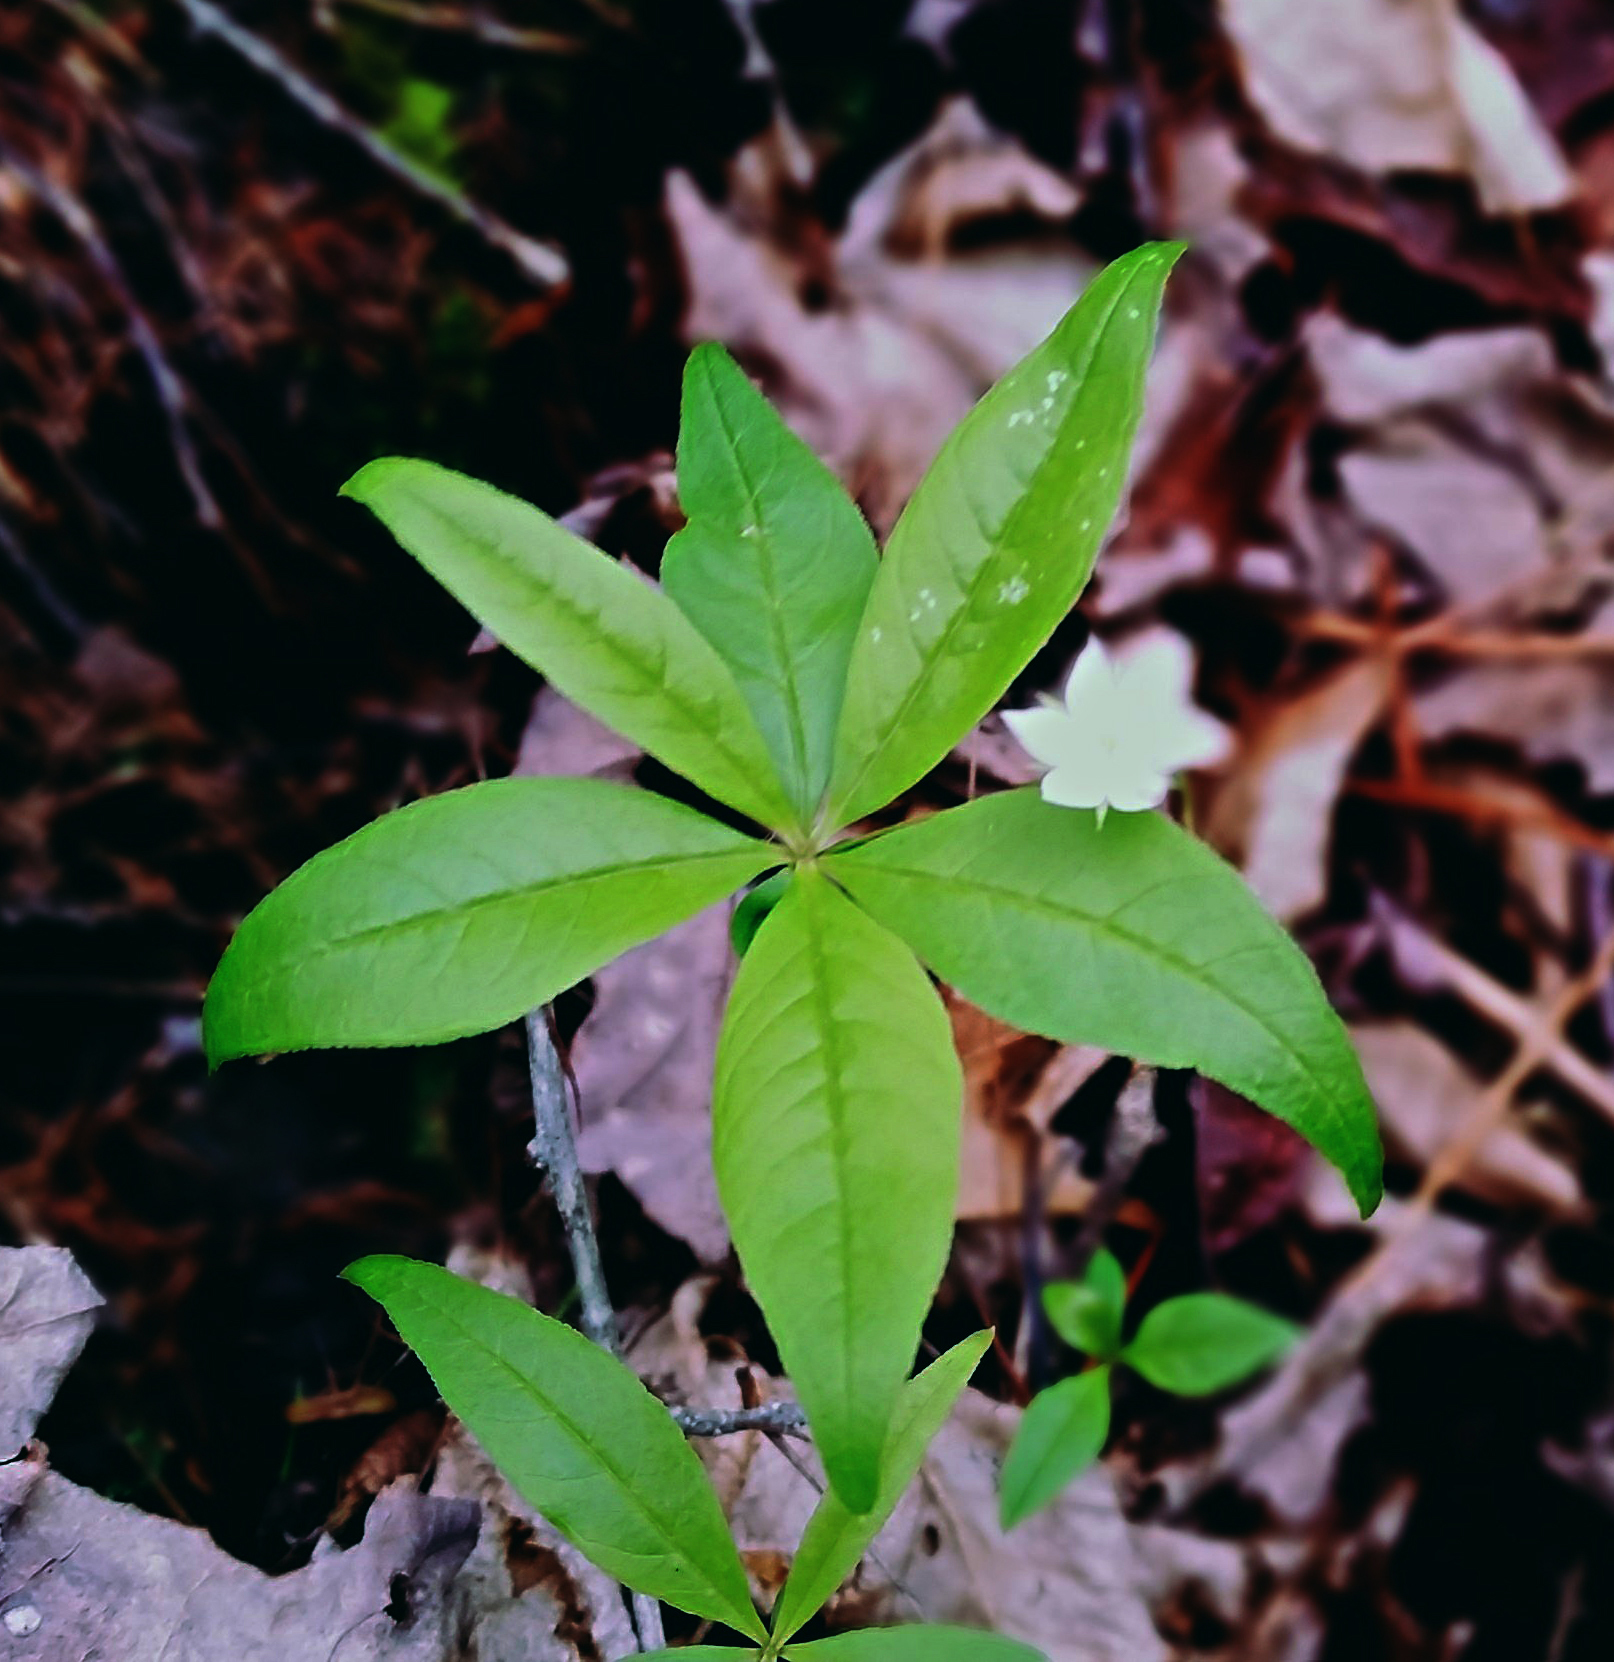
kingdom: Plantae
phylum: Tracheophyta
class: Magnoliopsida
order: Ericales
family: Primulaceae
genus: Lysimachia
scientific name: Lysimachia borealis
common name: American starflower
